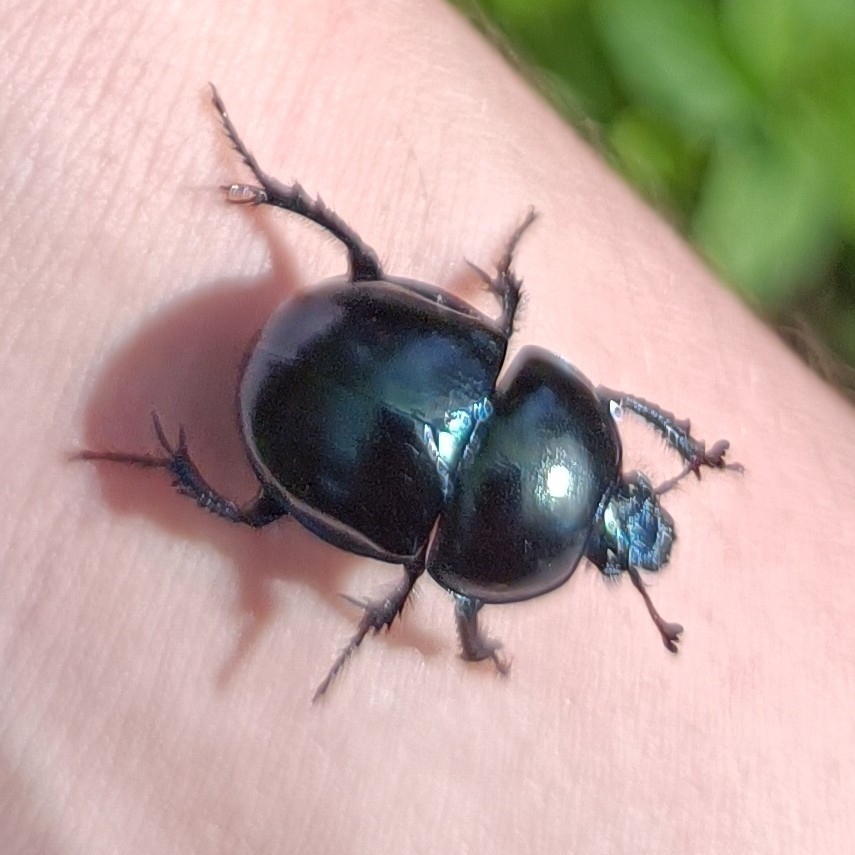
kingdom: Animalia
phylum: Arthropoda
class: Insecta
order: Coleoptera
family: Geotrupidae
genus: Trypocopris
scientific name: Trypocopris vernalis
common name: Spring dumbledor
